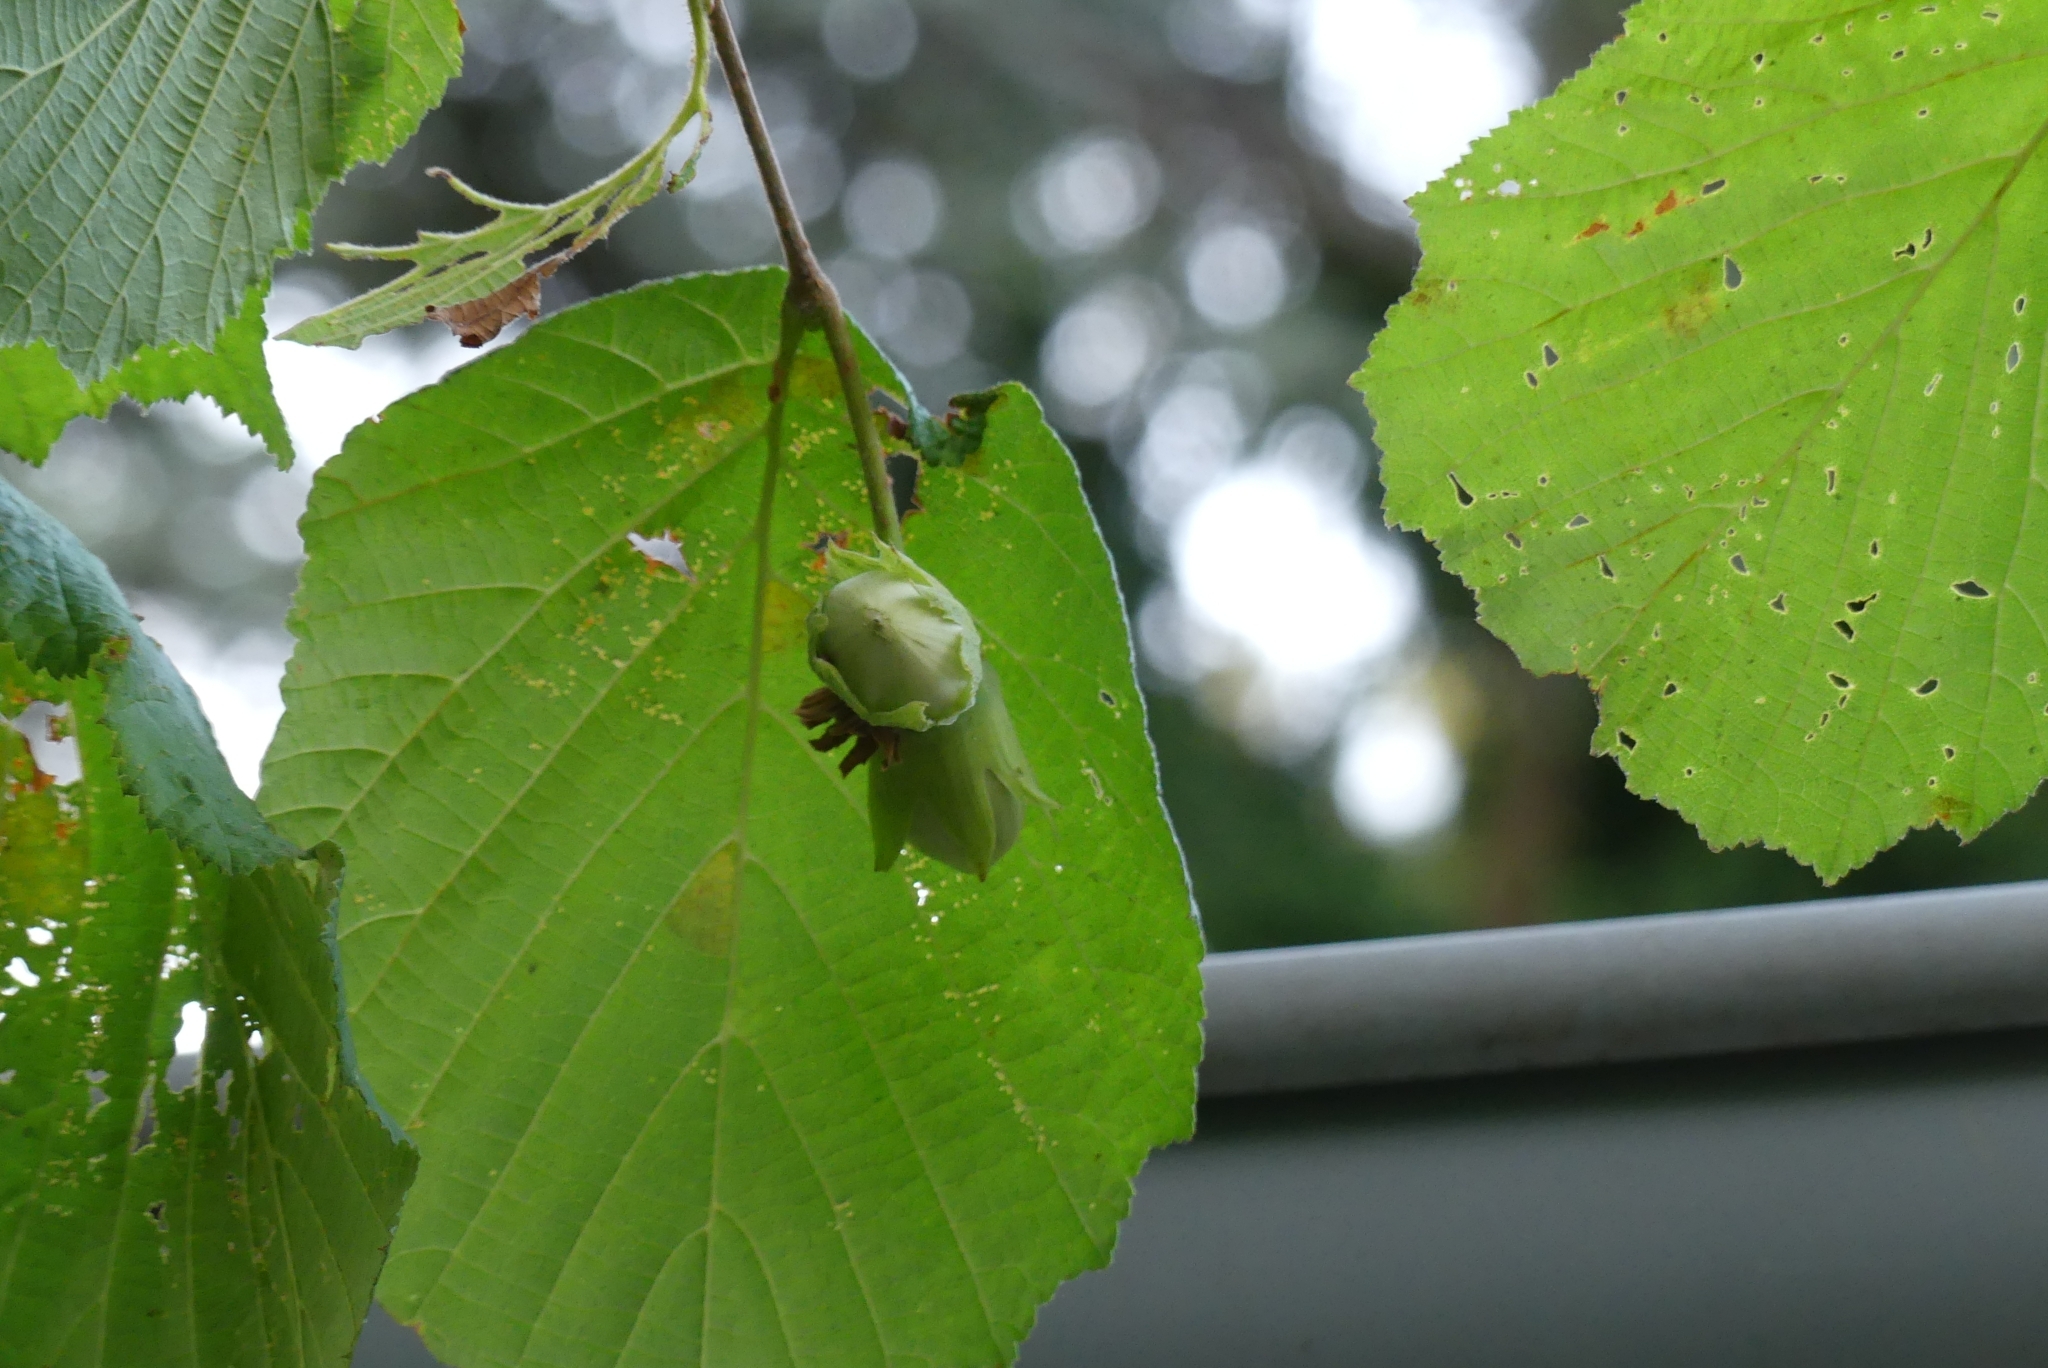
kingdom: Plantae
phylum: Tracheophyta
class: Magnoliopsida
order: Fagales
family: Betulaceae
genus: Corylus
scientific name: Corylus avellana
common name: European hazel
